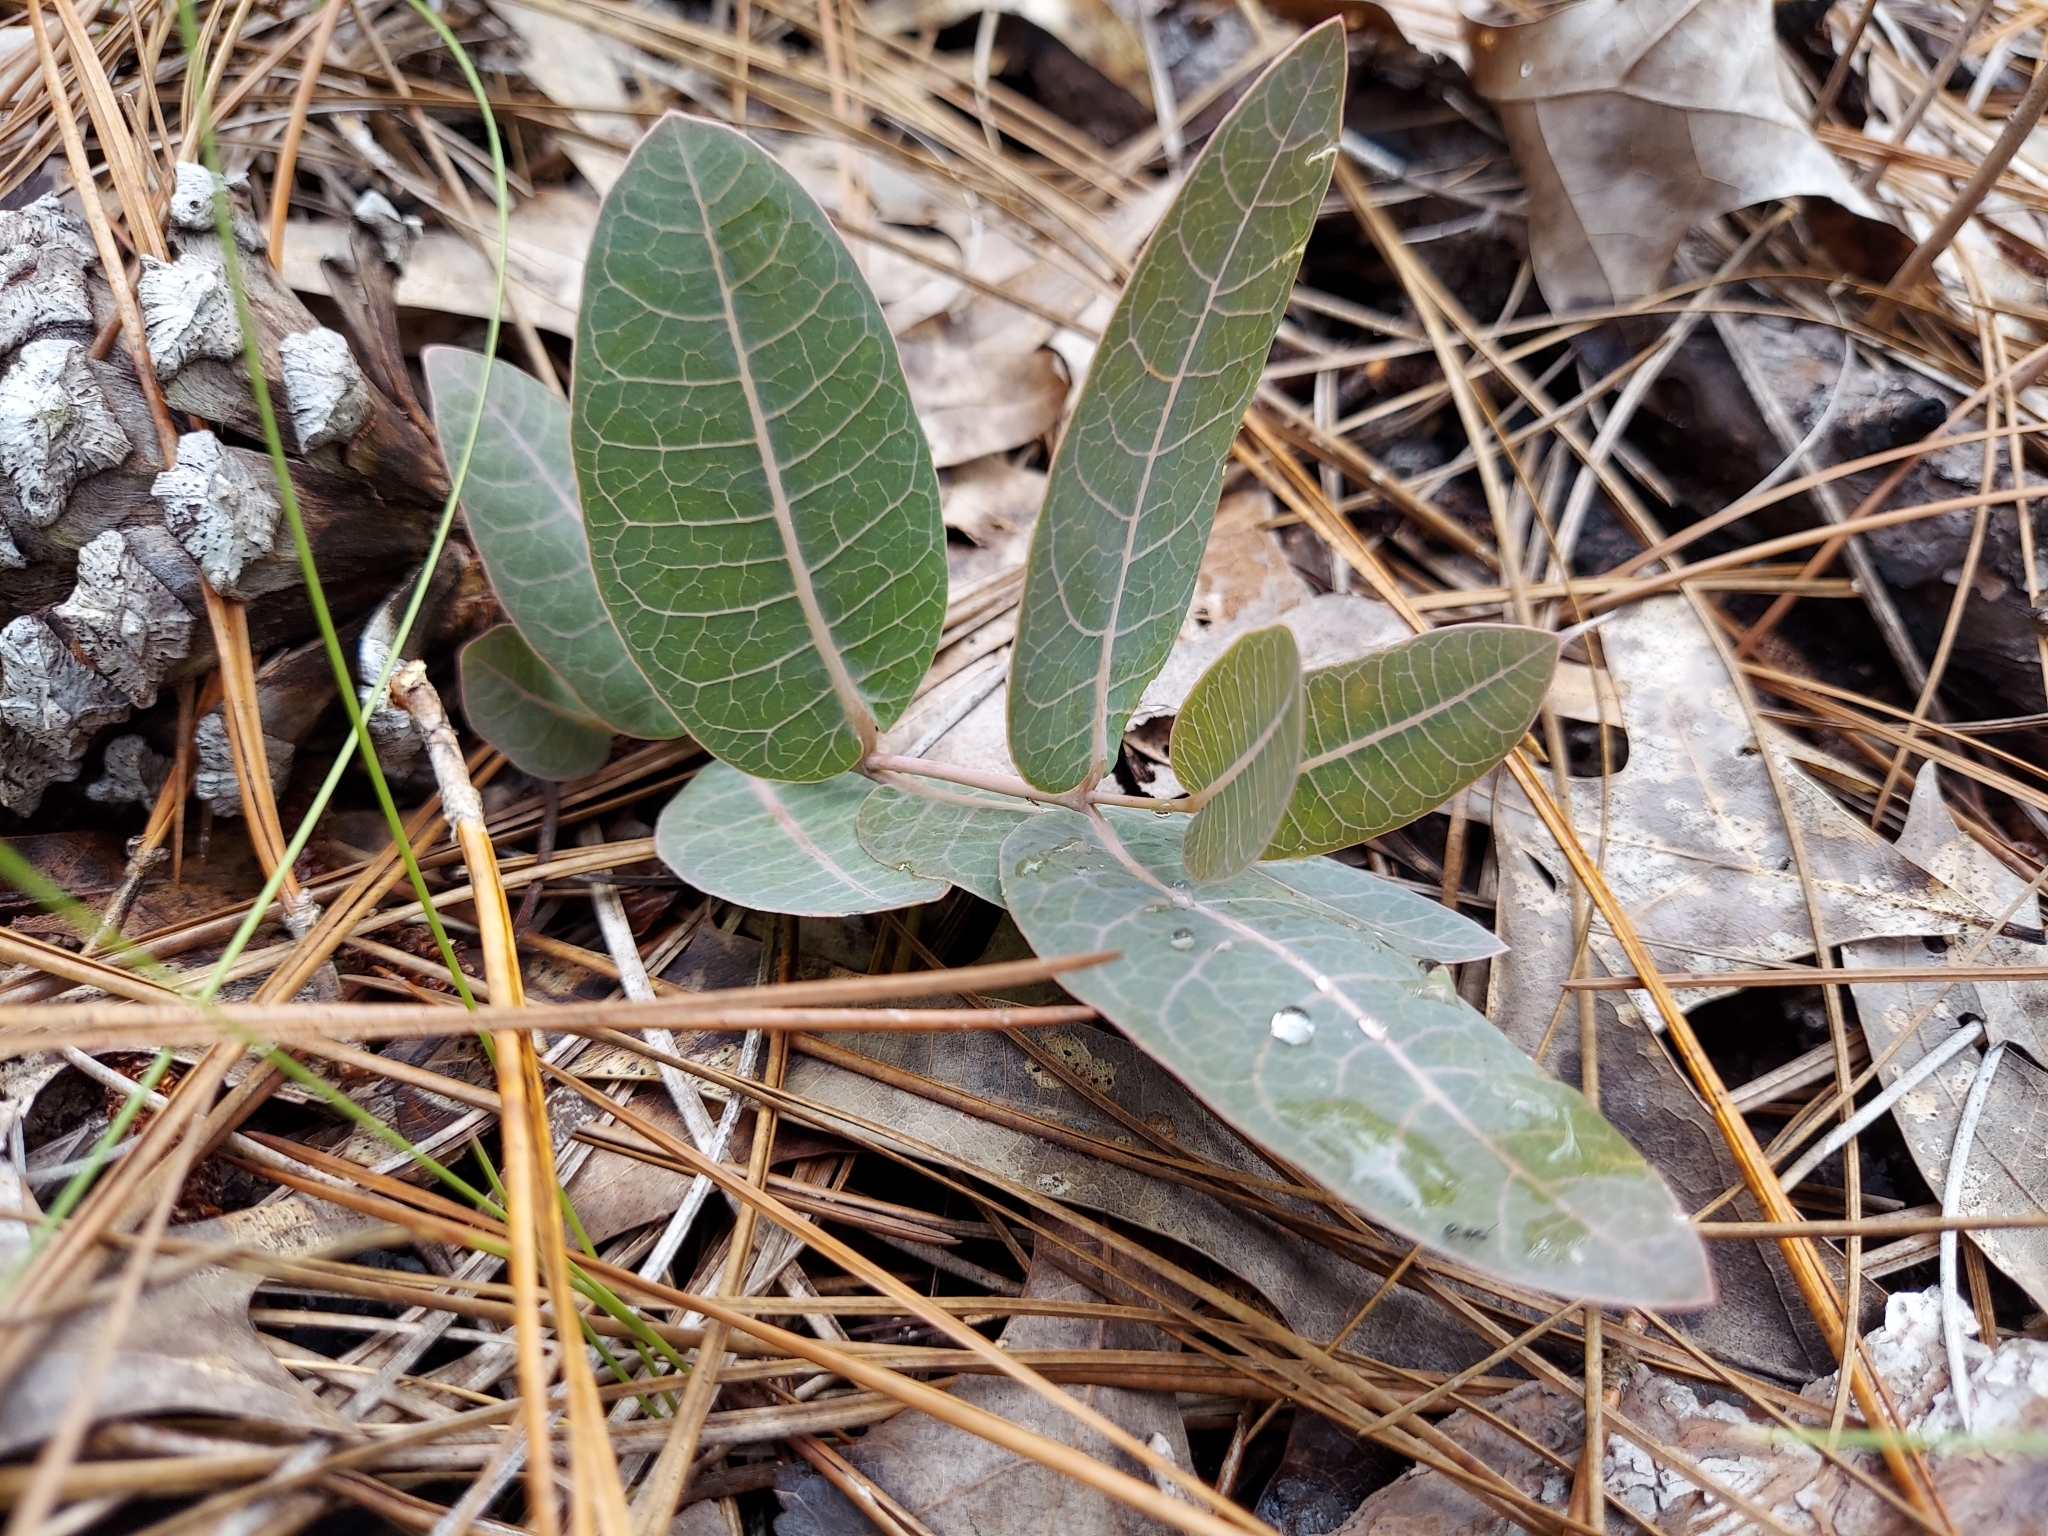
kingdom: Plantae
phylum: Tracheophyta
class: Magnoliopsida
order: Gentianales
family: Apocynaceae
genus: Asclepias
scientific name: Asclepias humistrata
